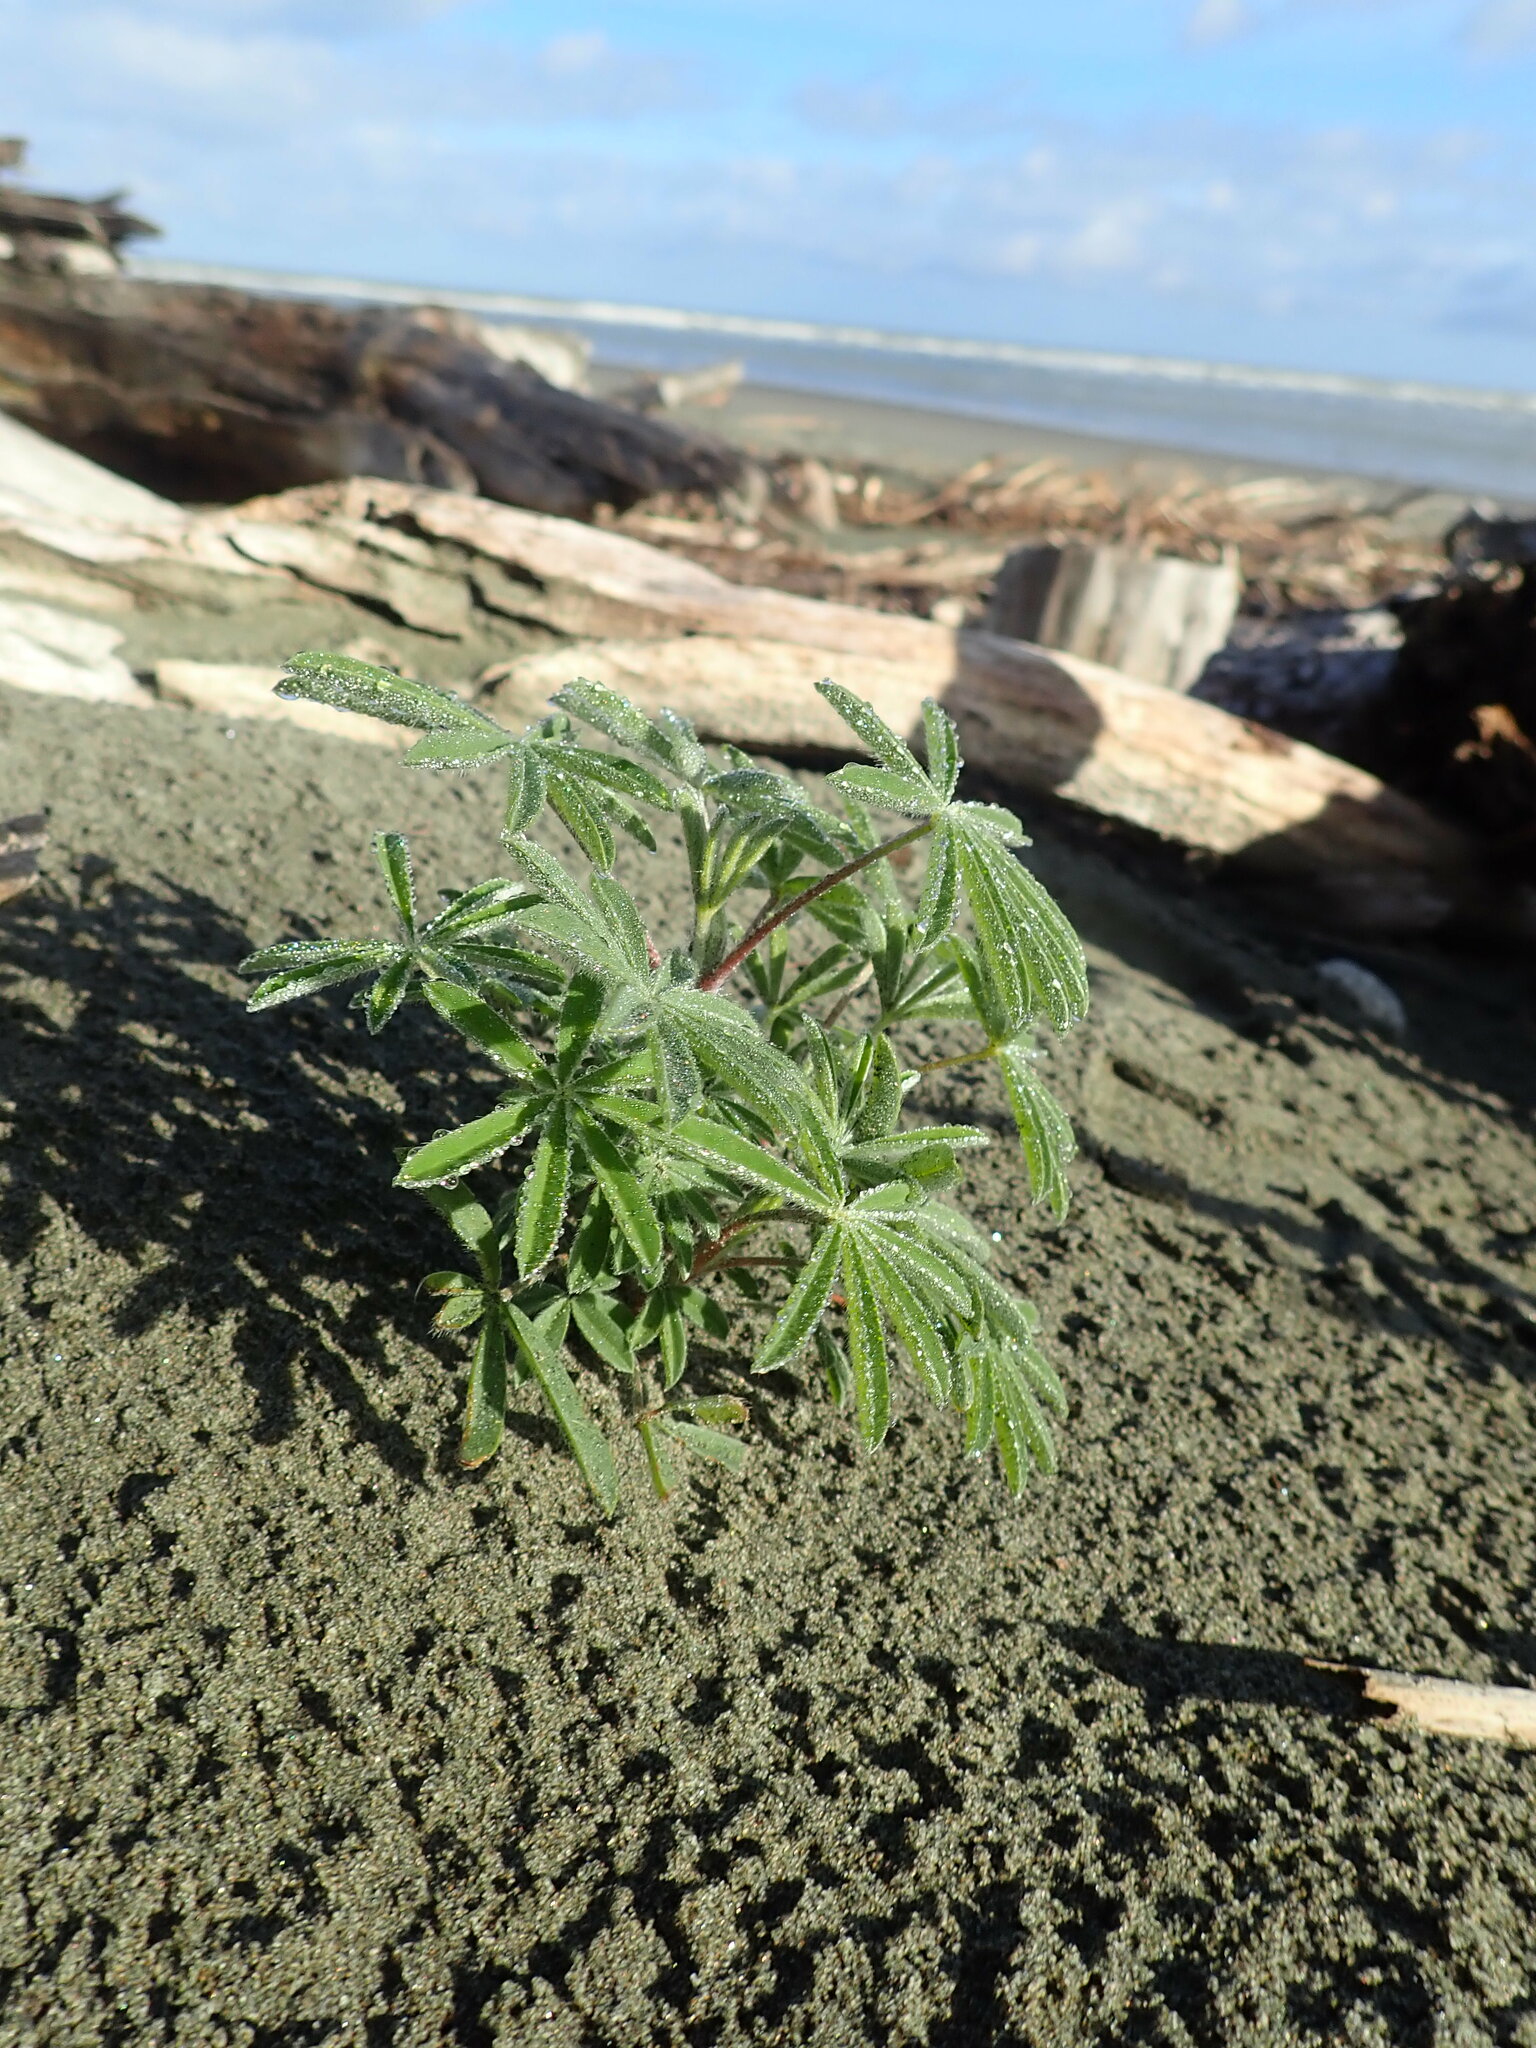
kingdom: Plantae
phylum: Tracheophyta
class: Magnoliopsida
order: Fabales
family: Fabaceae
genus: Lupinus
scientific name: Lupinus arboreus
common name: Yellow bush lupine
